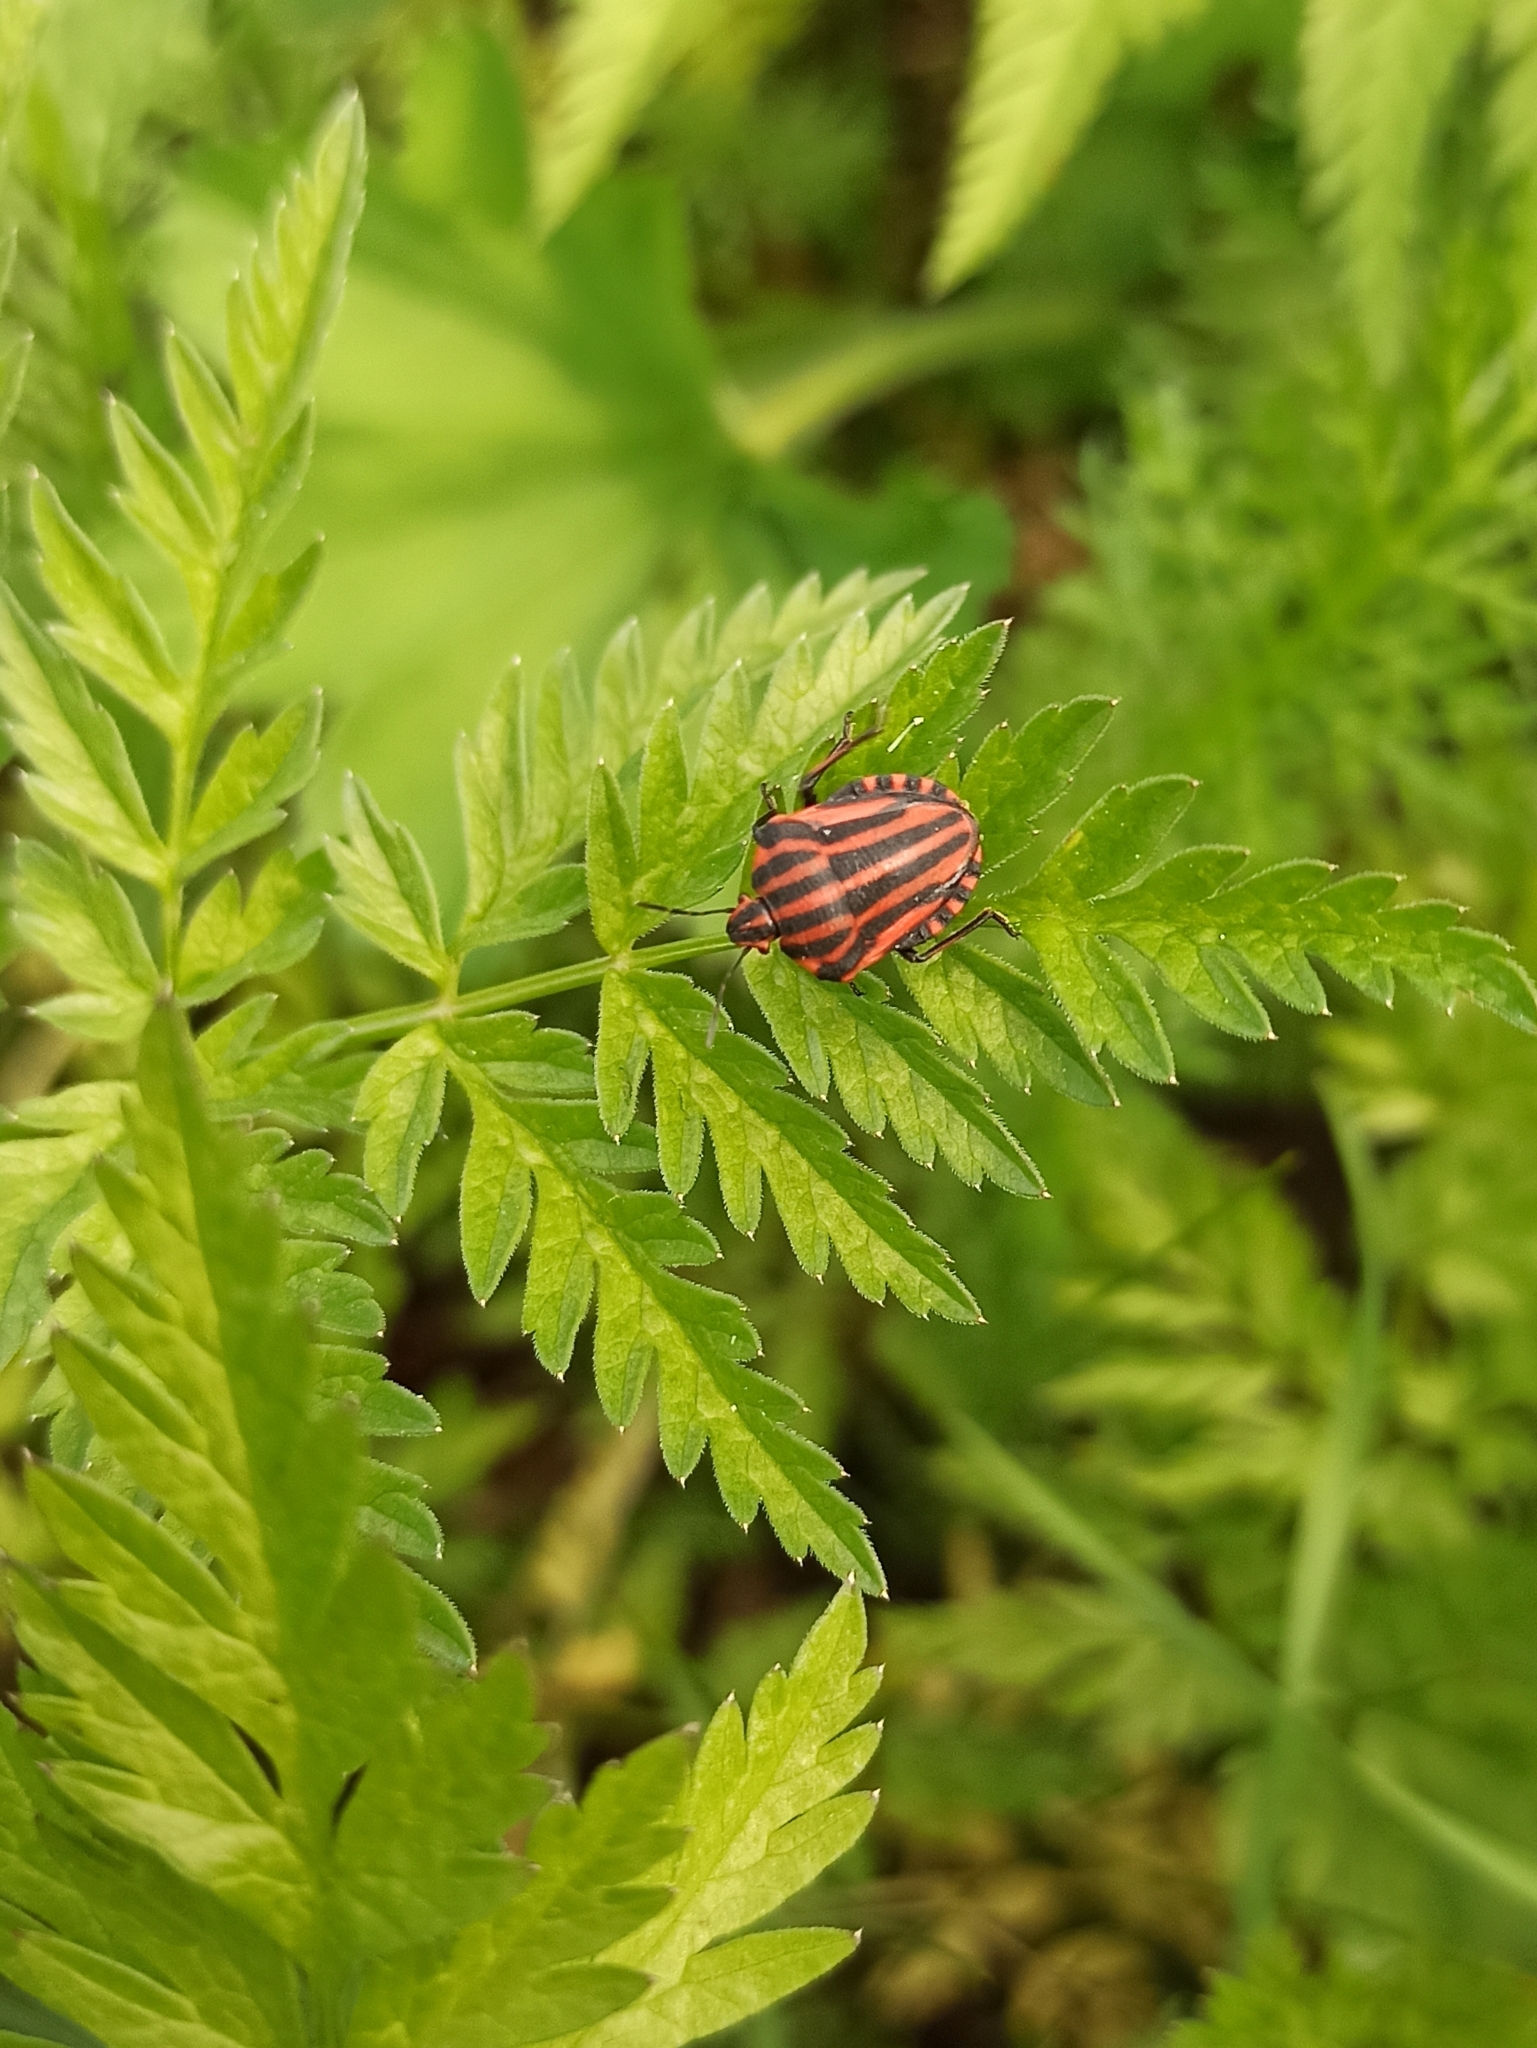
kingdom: Animalia
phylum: Arthropoda
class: Insecta
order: Hemiptera
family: Pentatomidae
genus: Graphosoma
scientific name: Graphosoma italicum
